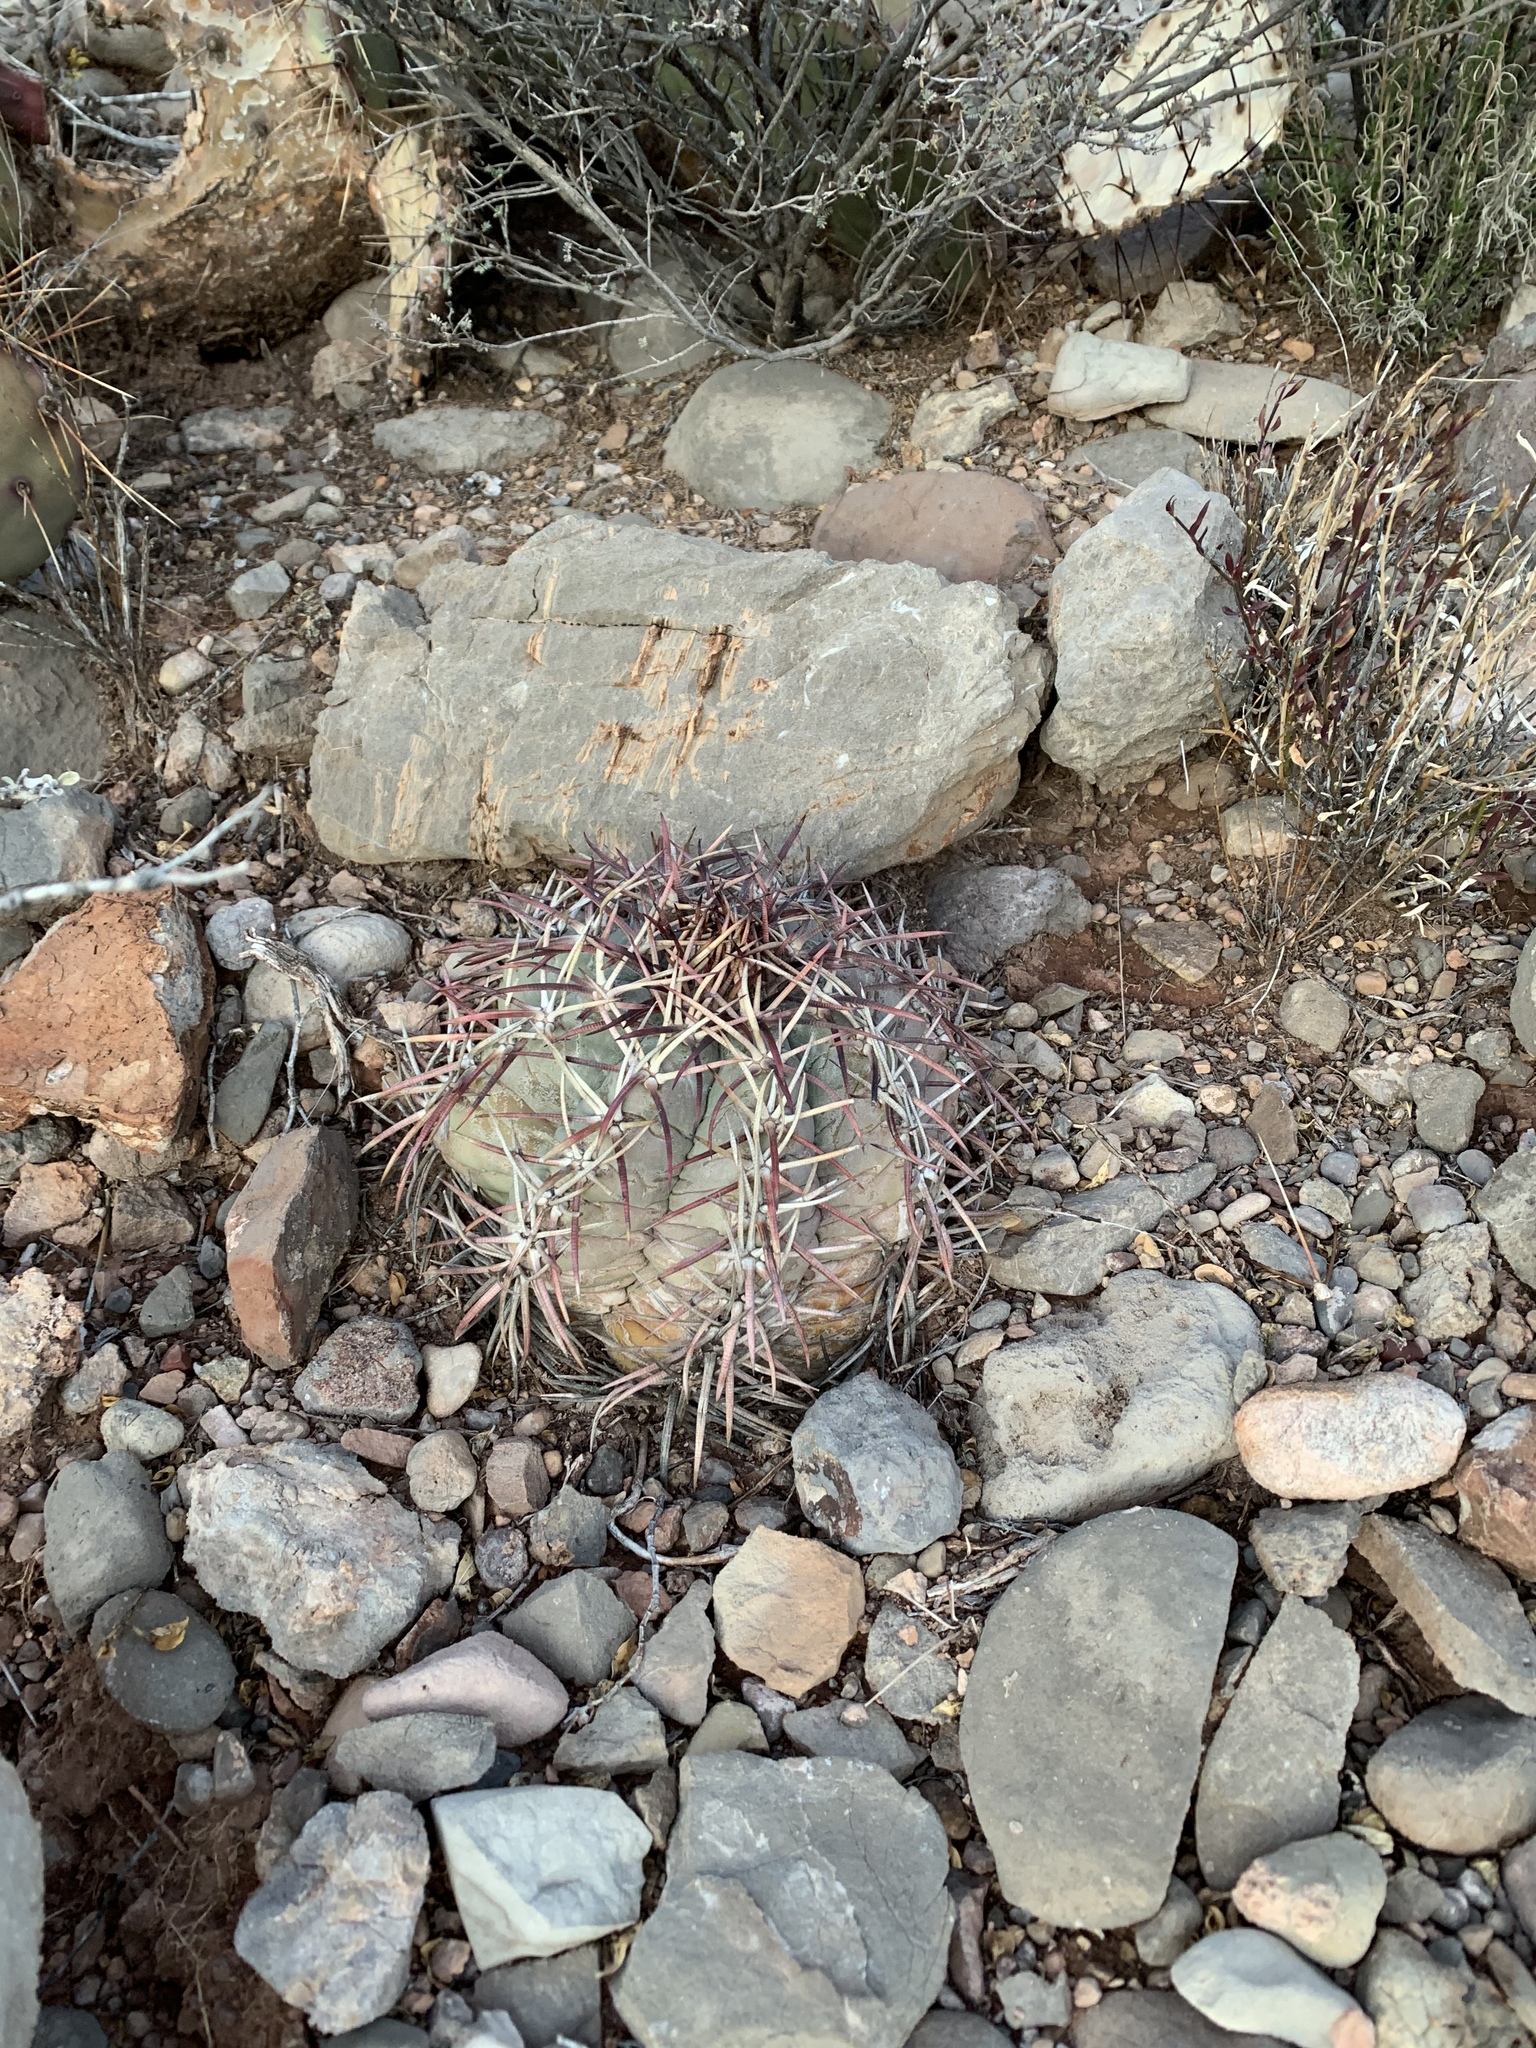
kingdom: Plantae
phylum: Tracheophyta
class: Magnoliopsida
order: Caryophyllales
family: Cactaceae
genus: Echinocactus
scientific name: Echinocactus horizonthalonius
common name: Devilshead
